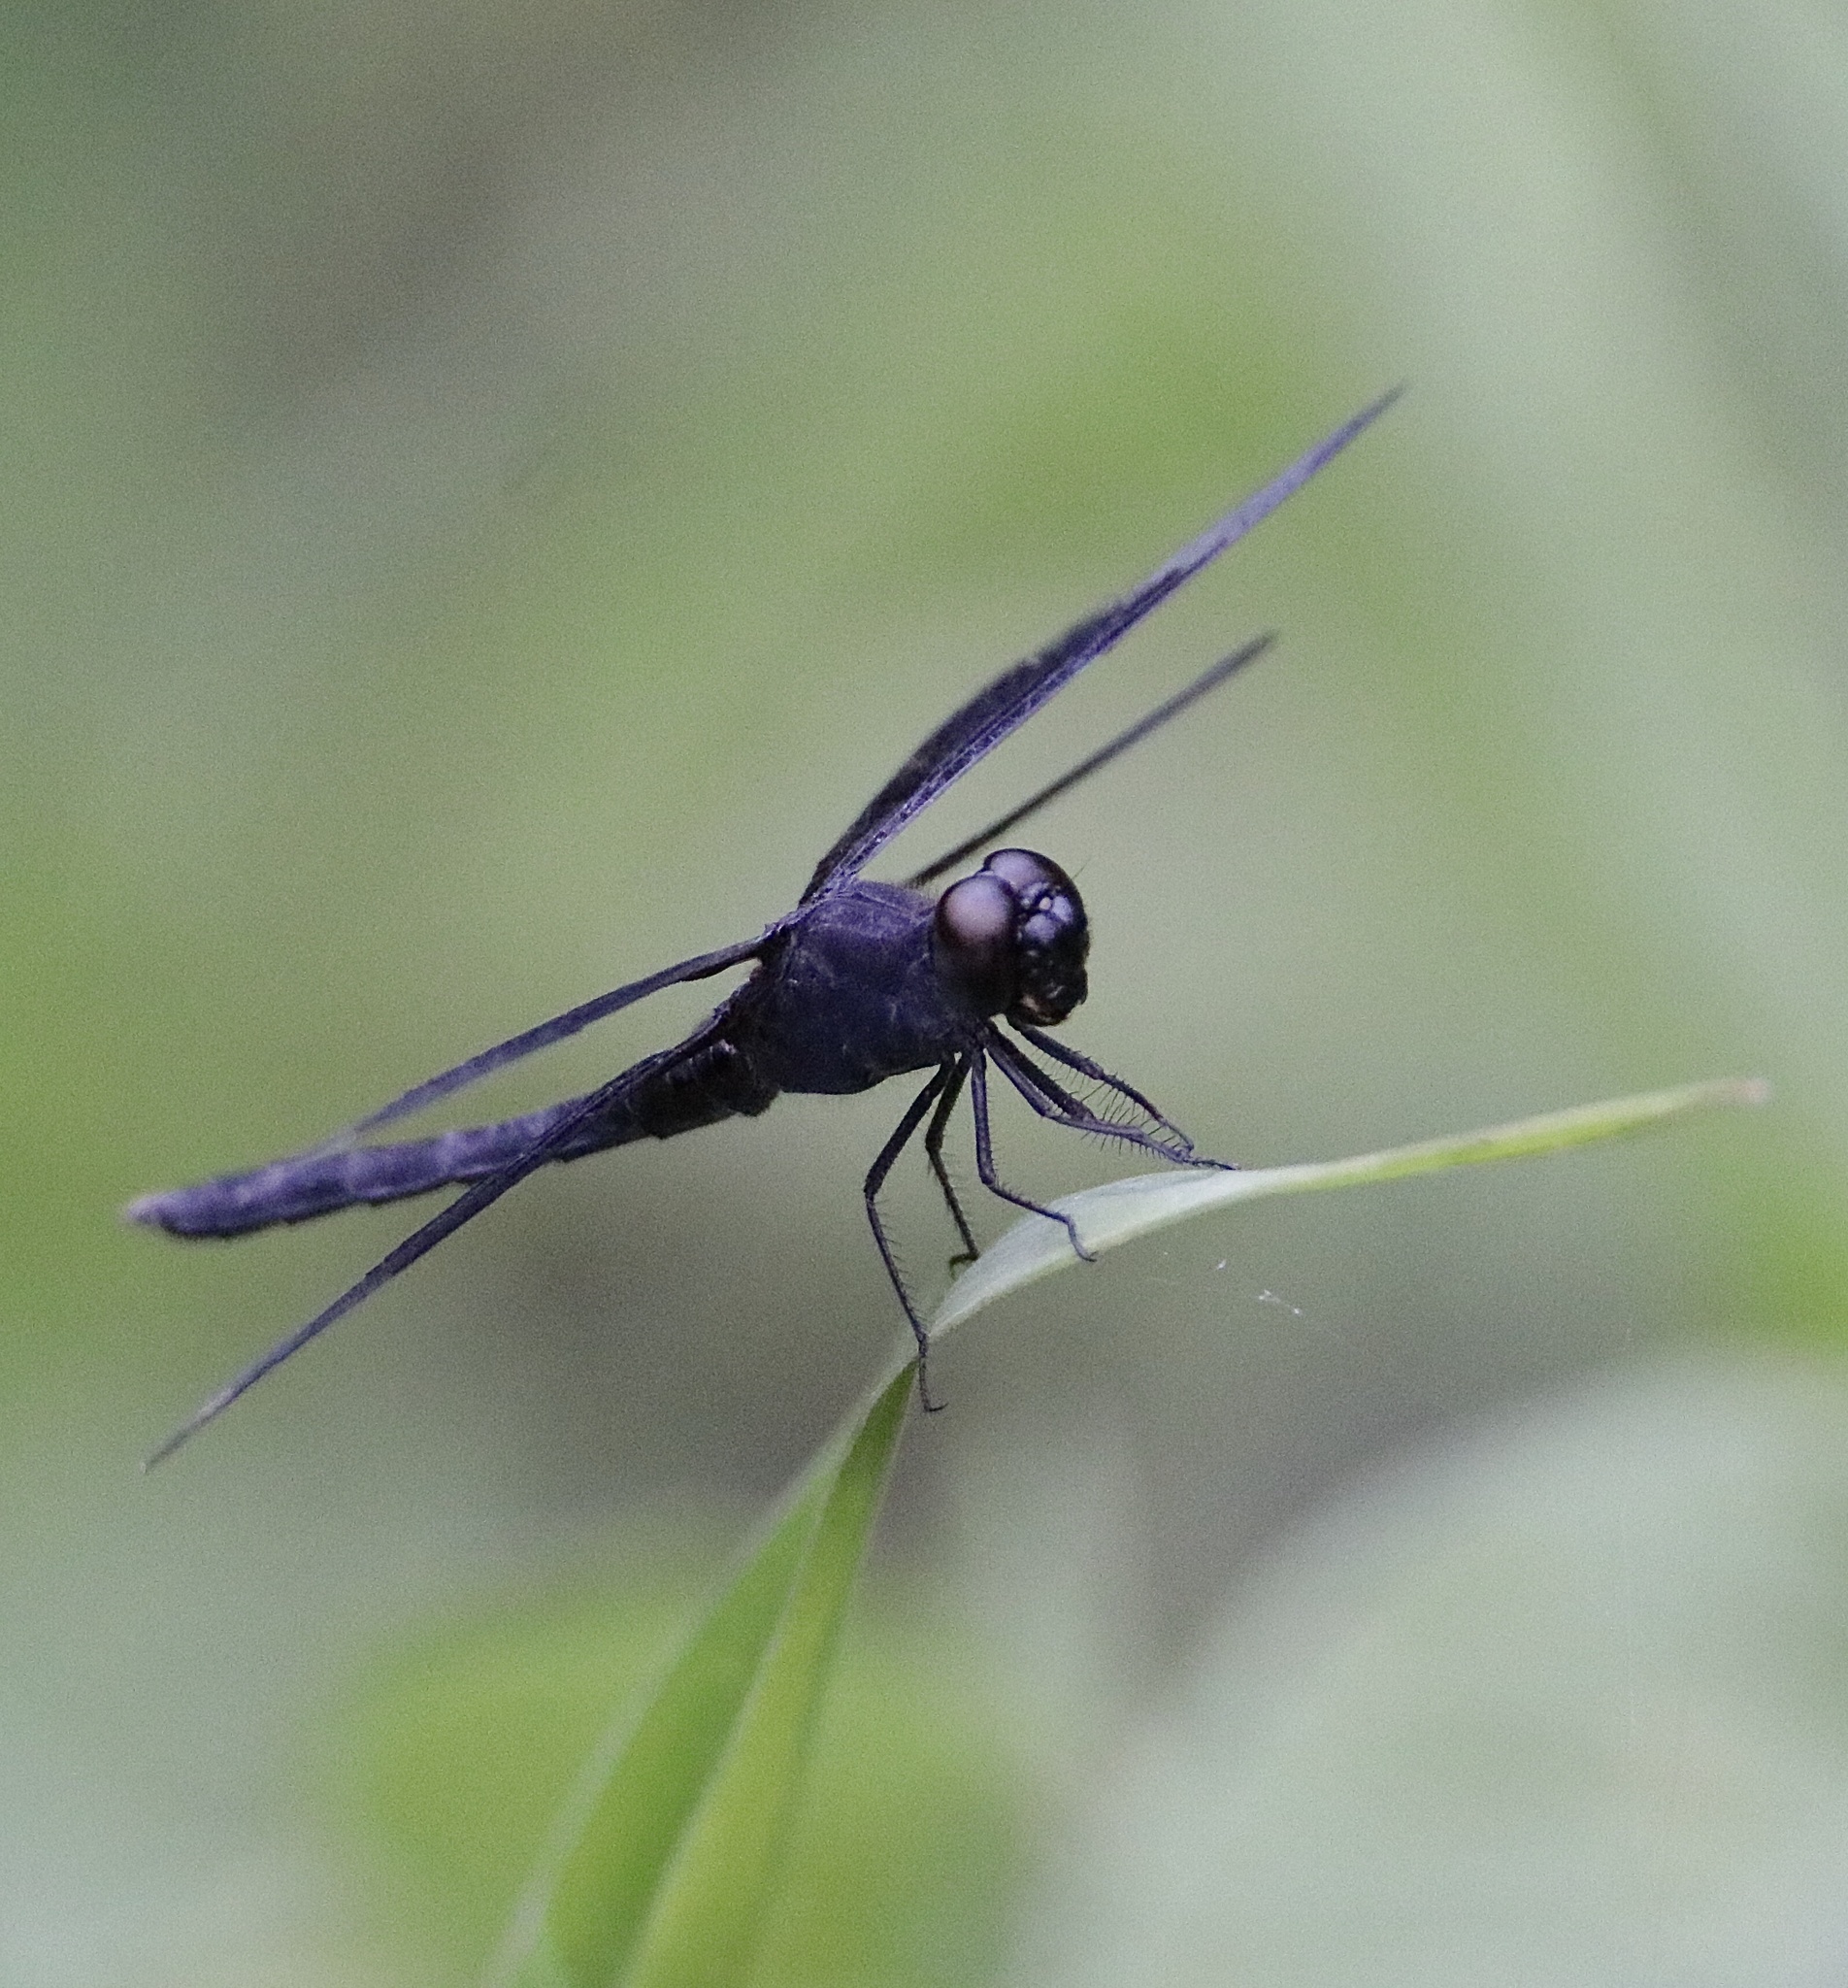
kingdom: Animalia
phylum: Arthropoda
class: Insecta
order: Odonata
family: Libellulidae
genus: Erythrodiplax
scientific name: Erythrodiplax funerea
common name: Black-winged dragonlet
